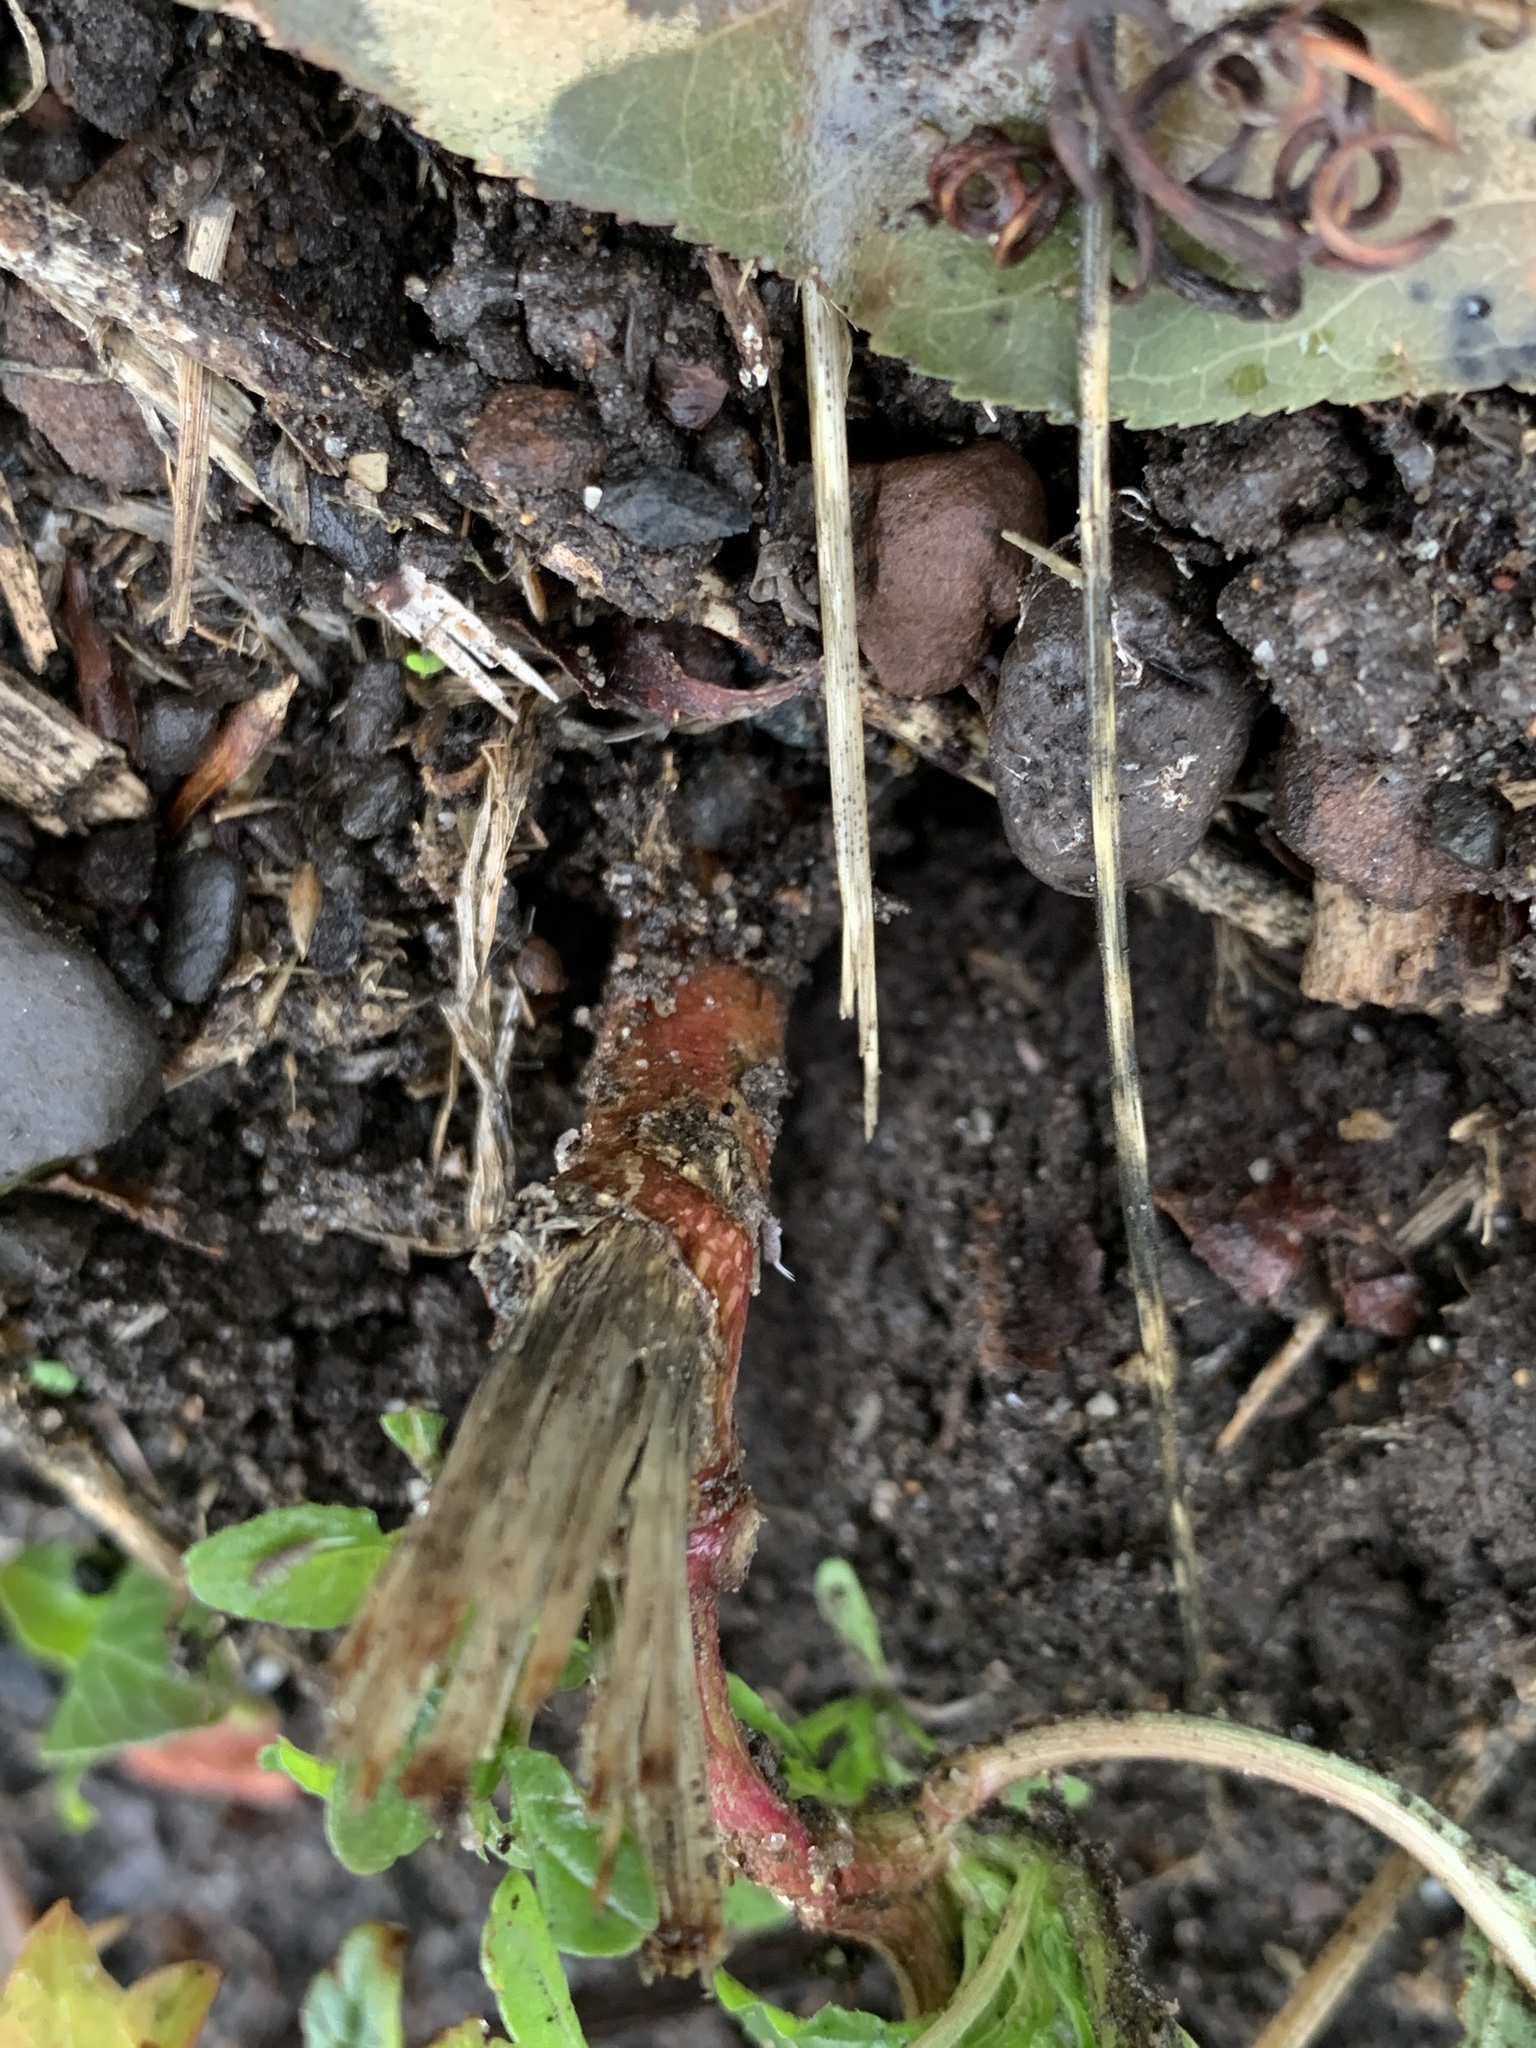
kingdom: Plantae
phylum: Tracheophyta
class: Magnoliopsida
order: Caryophyllales
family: Amaranthaceae
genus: Amaranthus
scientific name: Amaranthus retroflexus
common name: Redroot amaranth
